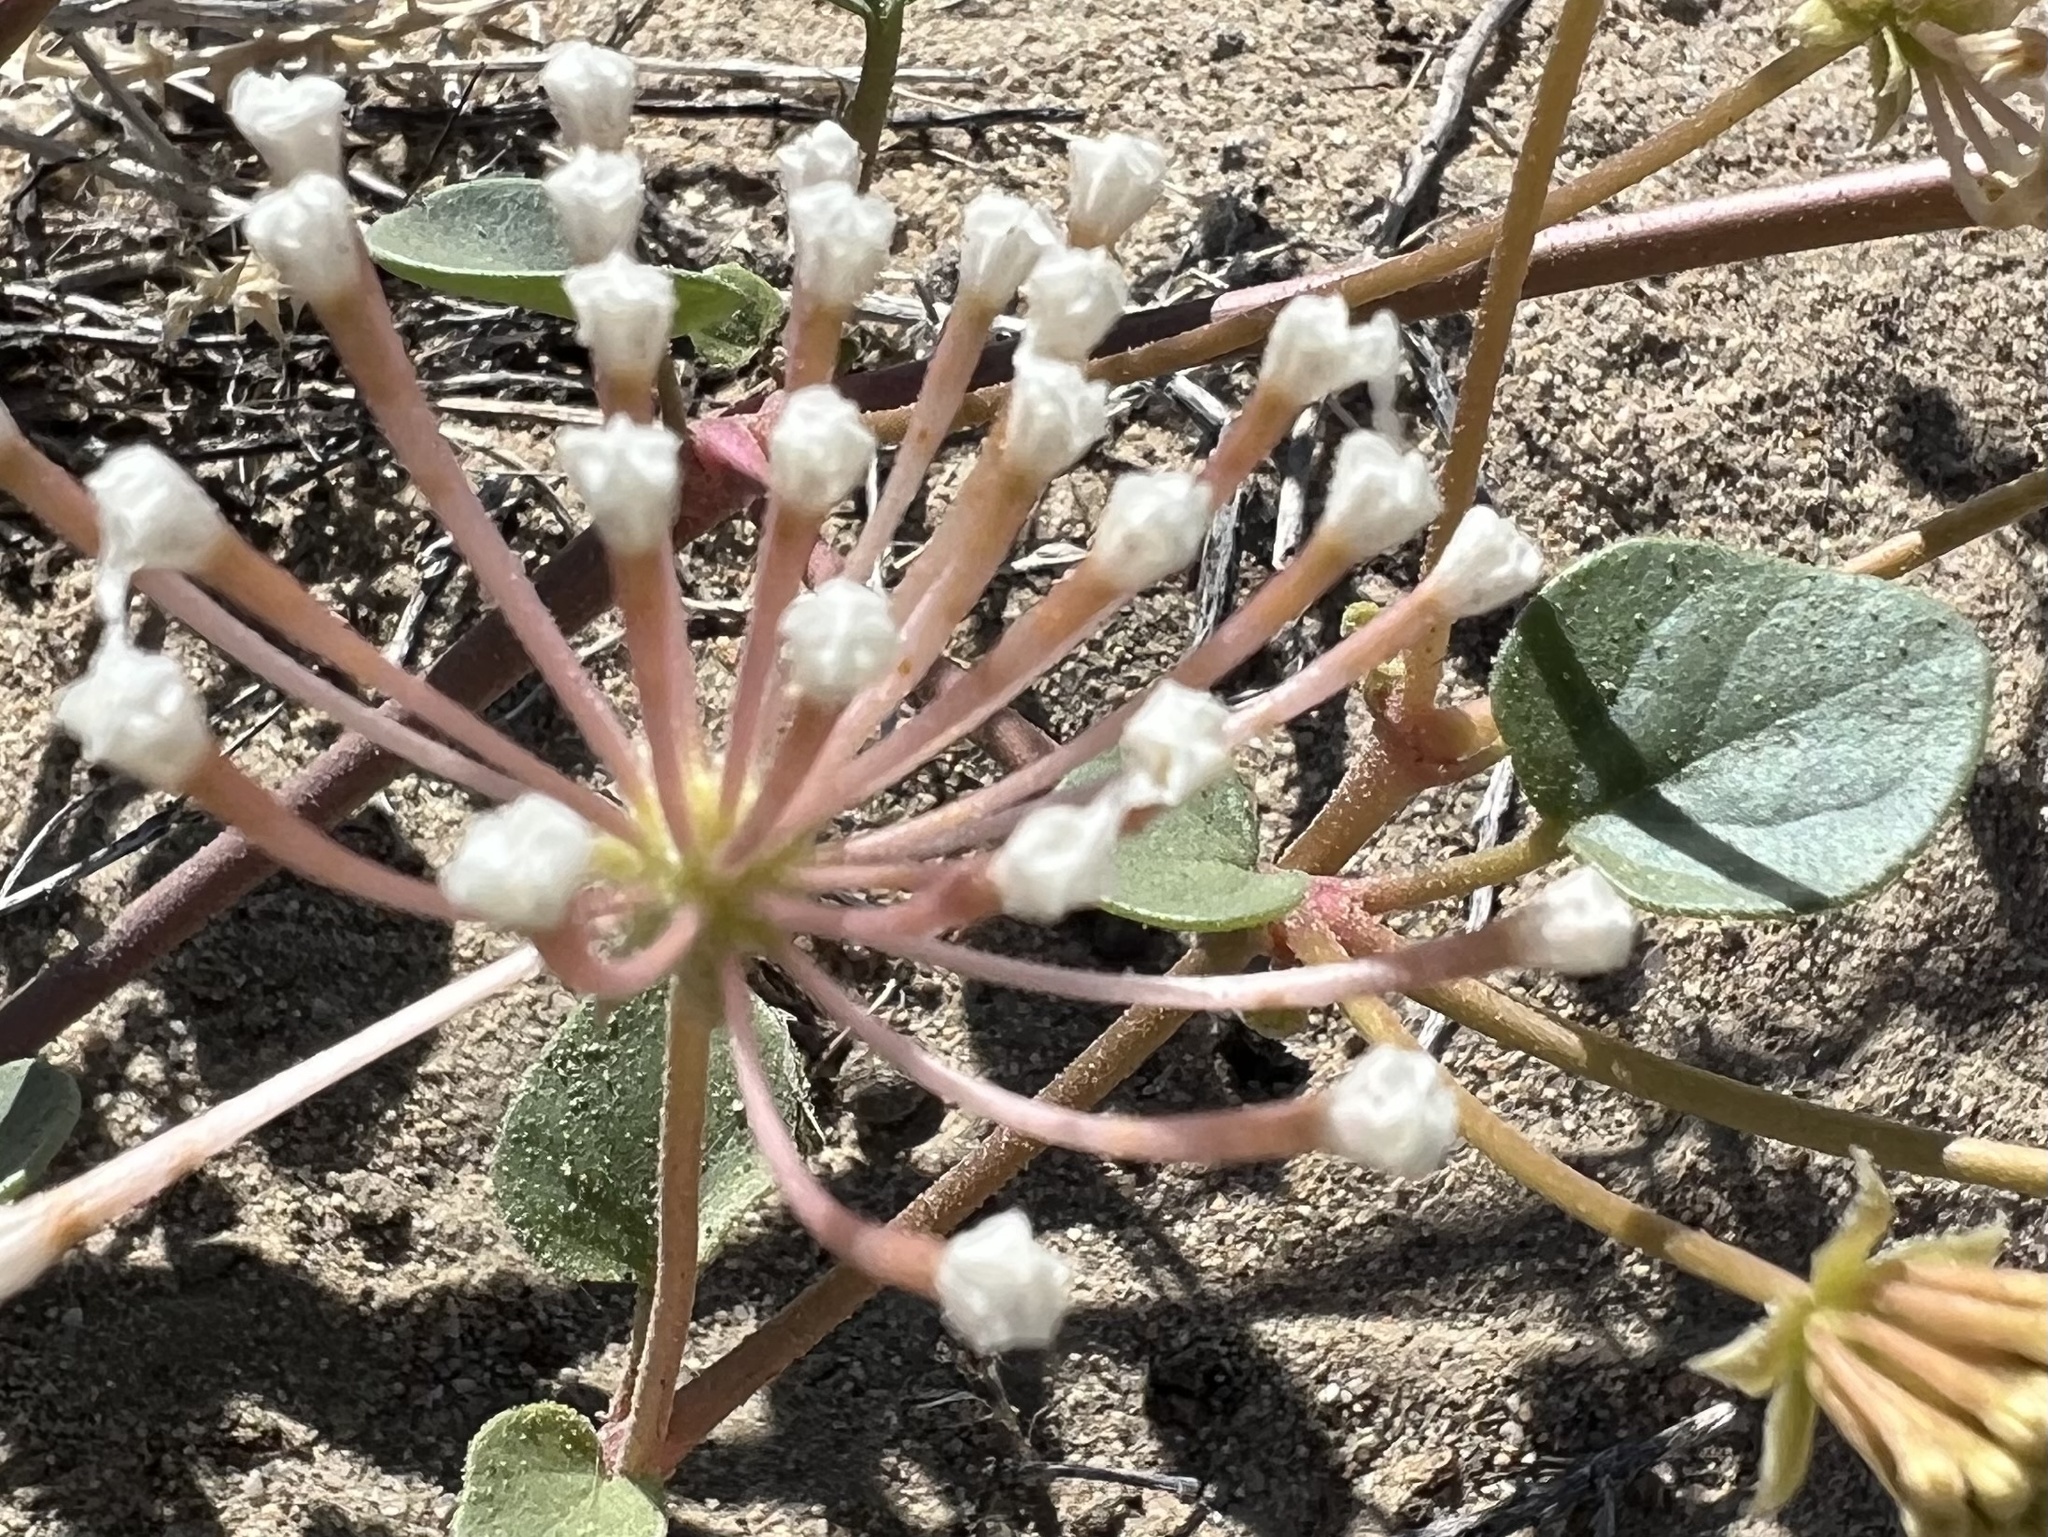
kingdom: Plantae
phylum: Tracheophyta
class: Magnoliopsida
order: Caryophyllales
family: Nyctaginaceae
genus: Abronia
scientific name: Abronia turbinata
